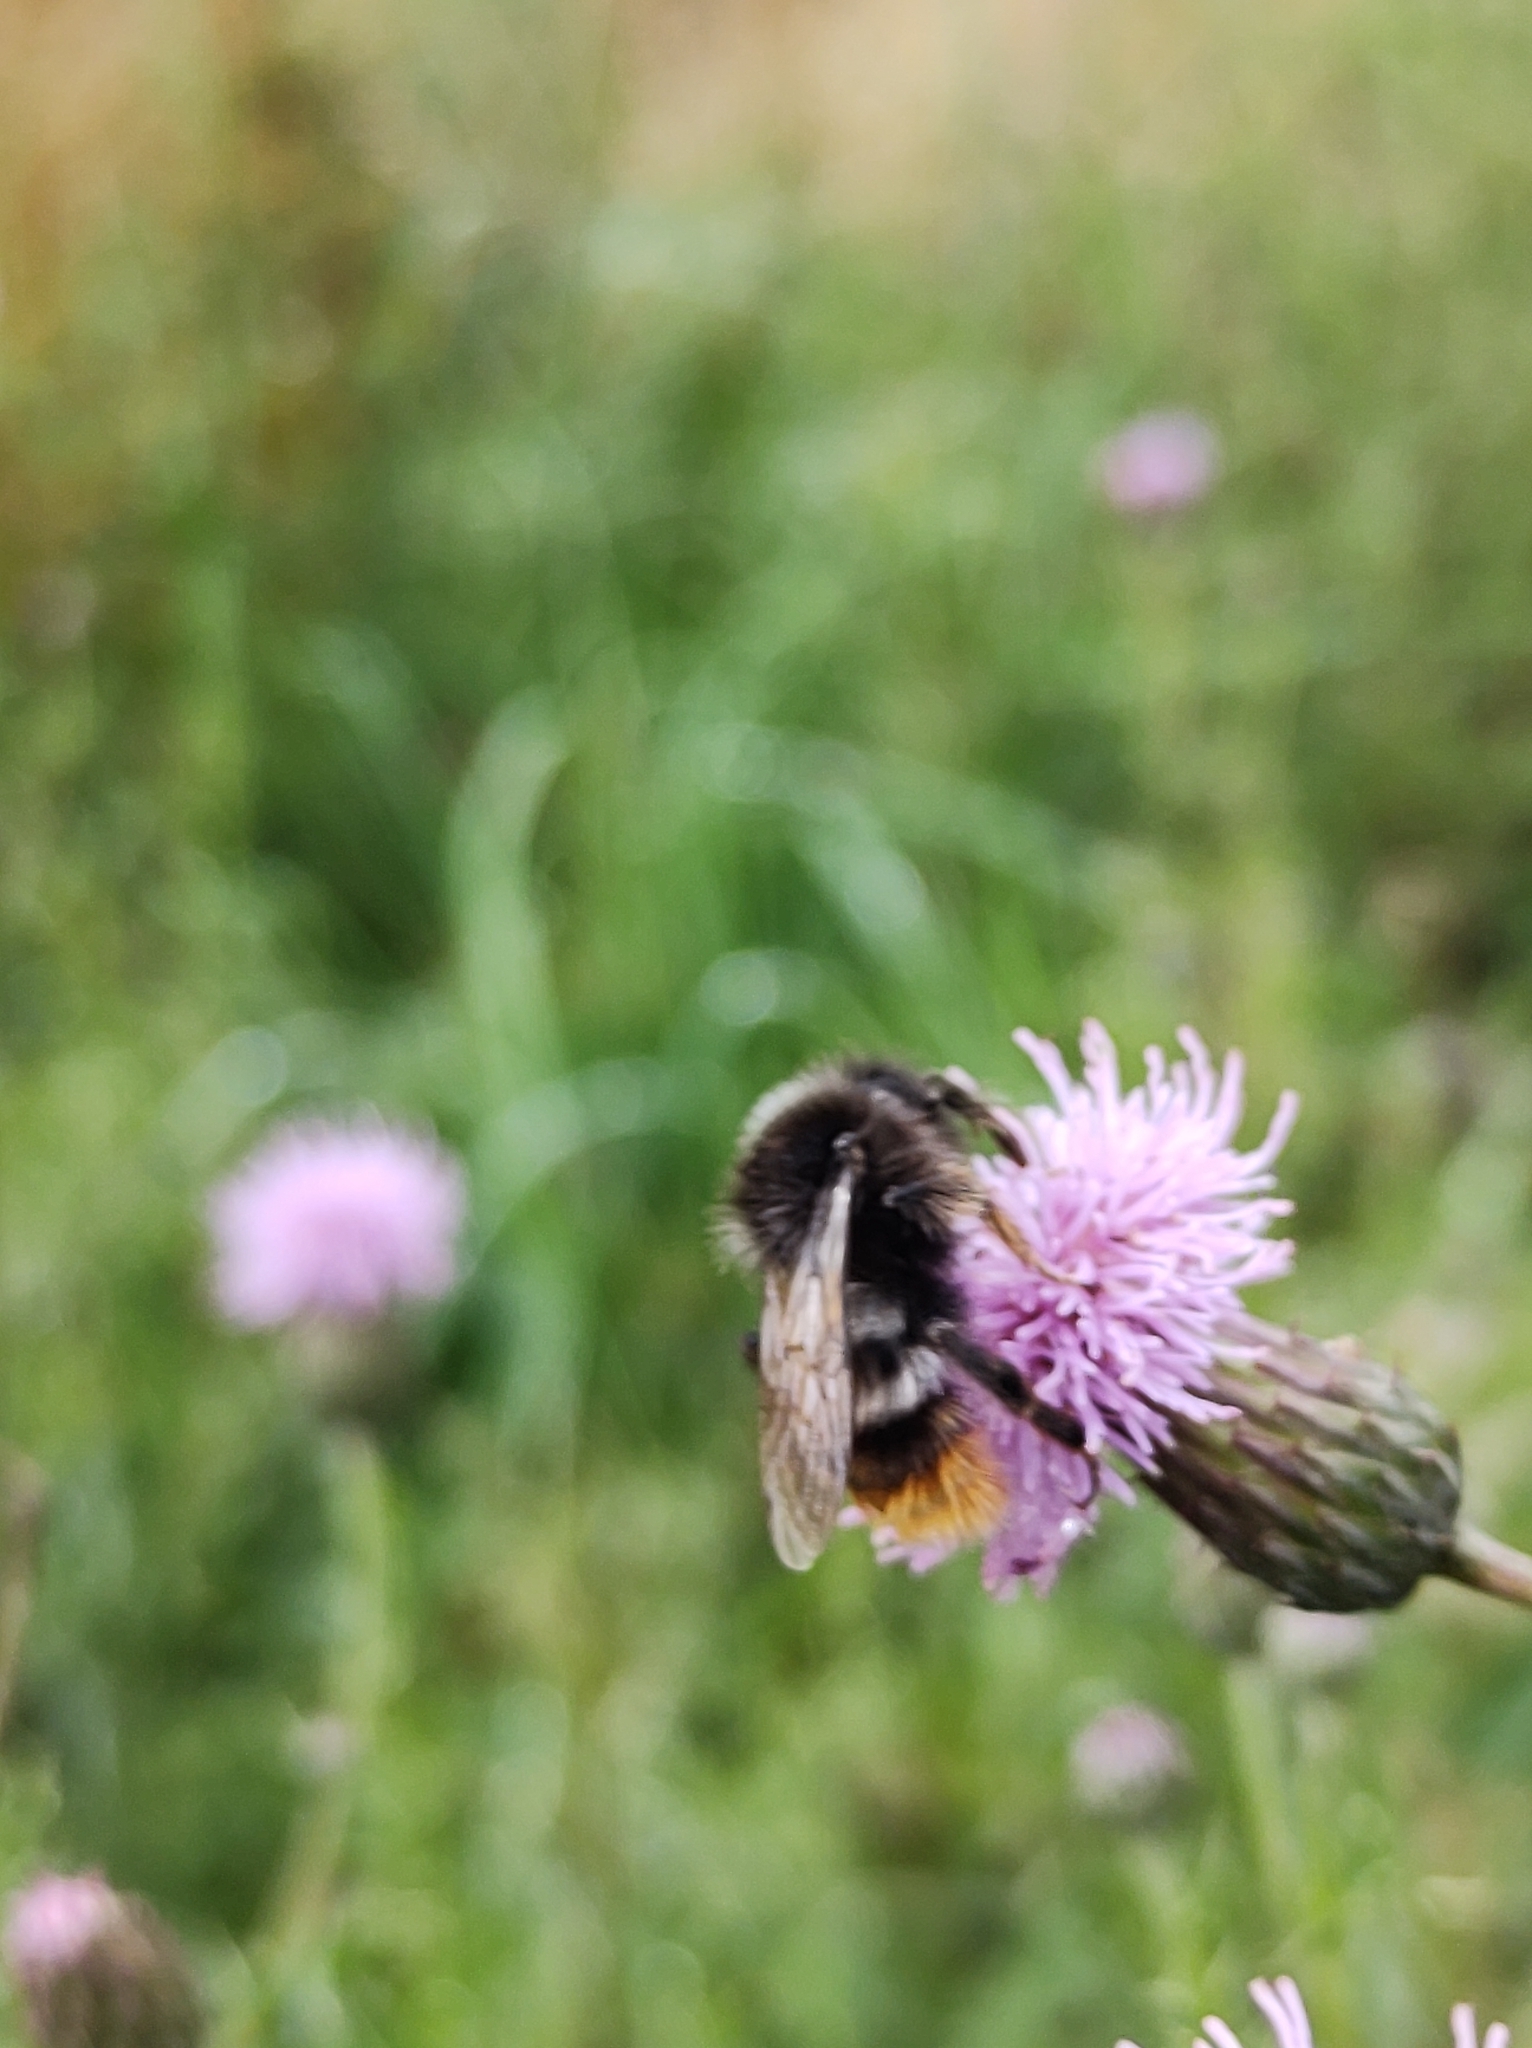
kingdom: Animalia
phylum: Arthropoda
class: Insecta
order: Hymenoptera
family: Apidae
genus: Bombus
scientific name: Bombus rupestris
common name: Hill cuckoo-bee
